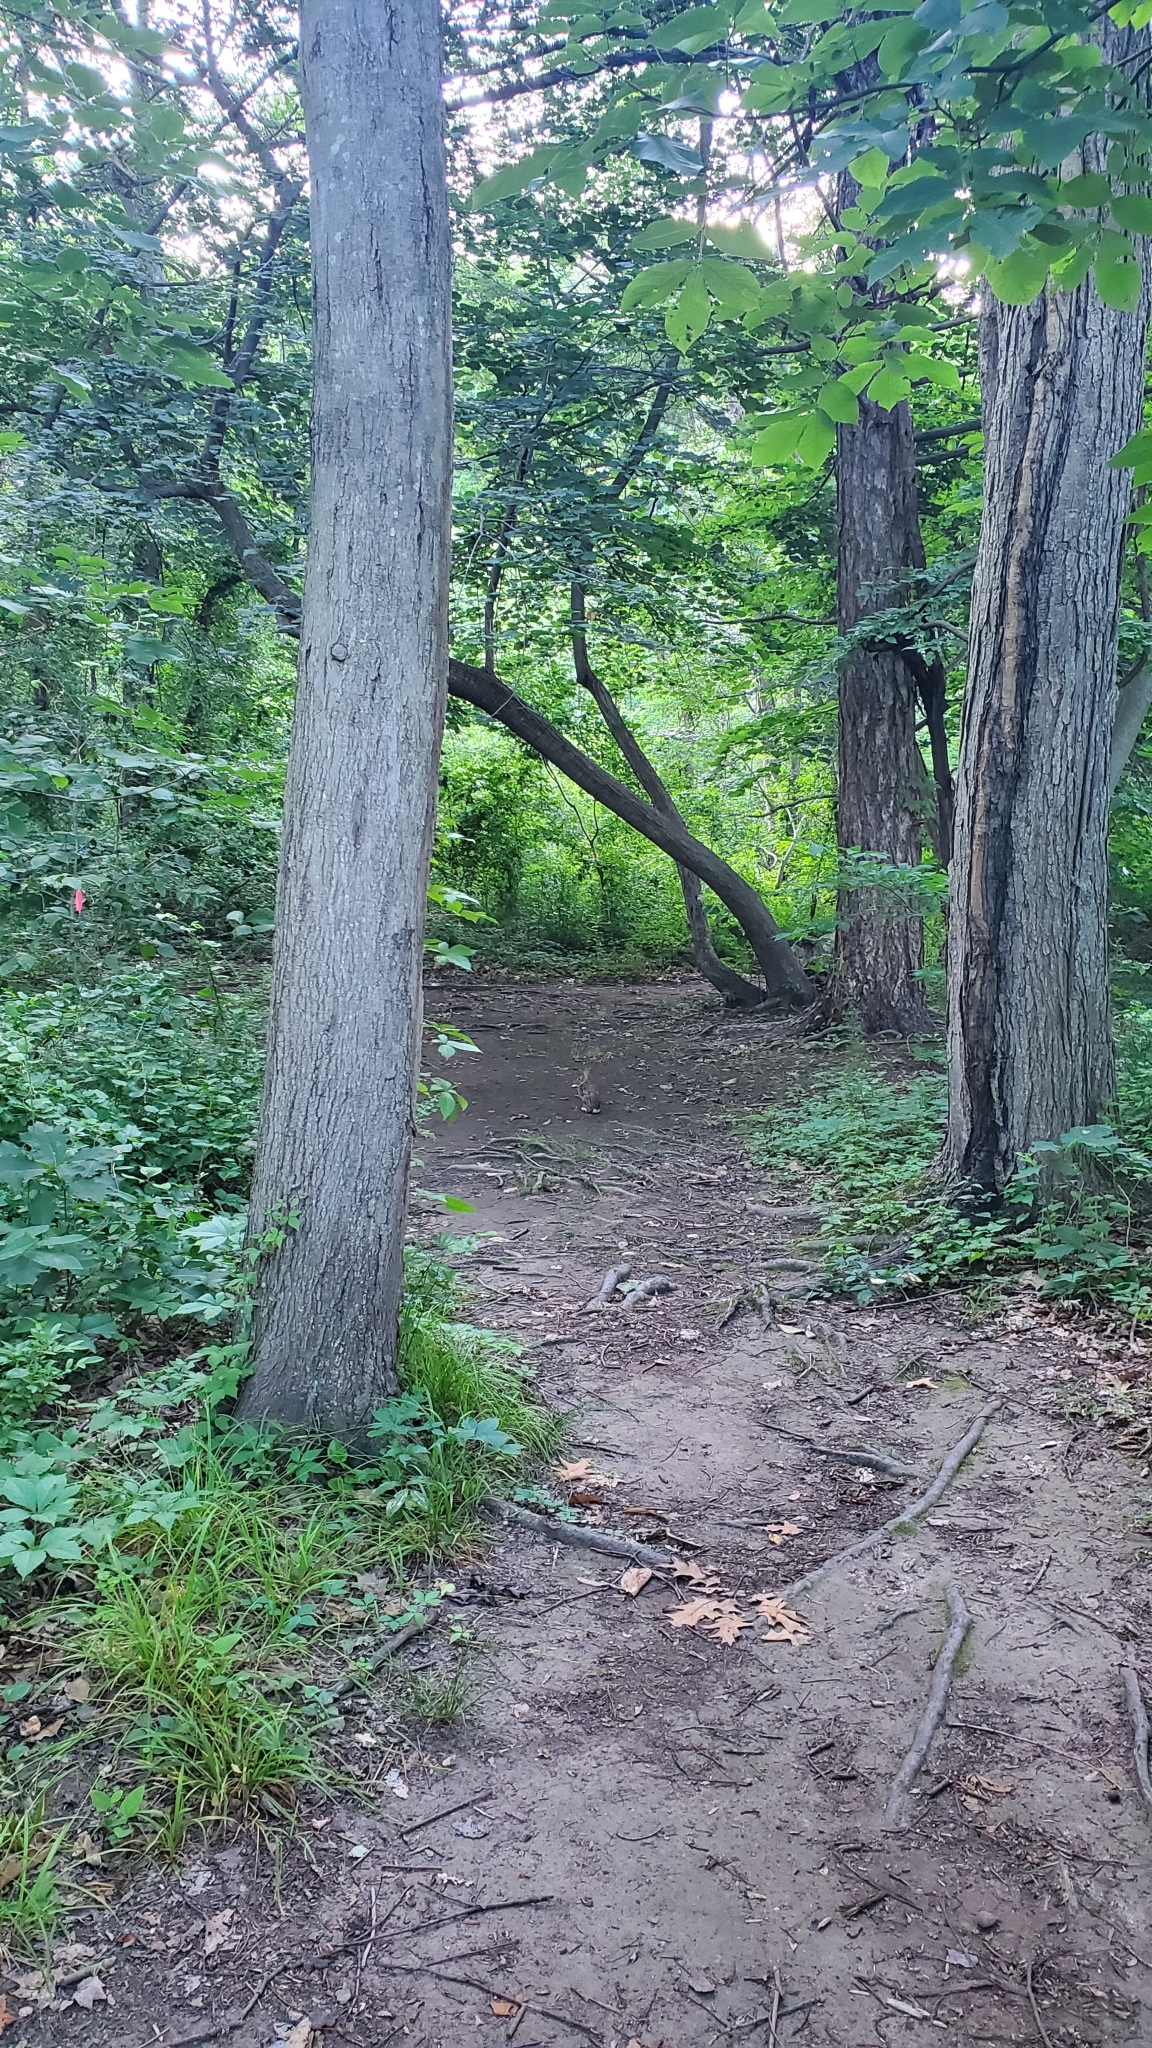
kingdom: Animalia
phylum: Chordata
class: Mammalia
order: Lagomorpha
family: Leporidae
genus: Sylvilagus
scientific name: Sylvilagus floridanus
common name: Eastern cottontail
